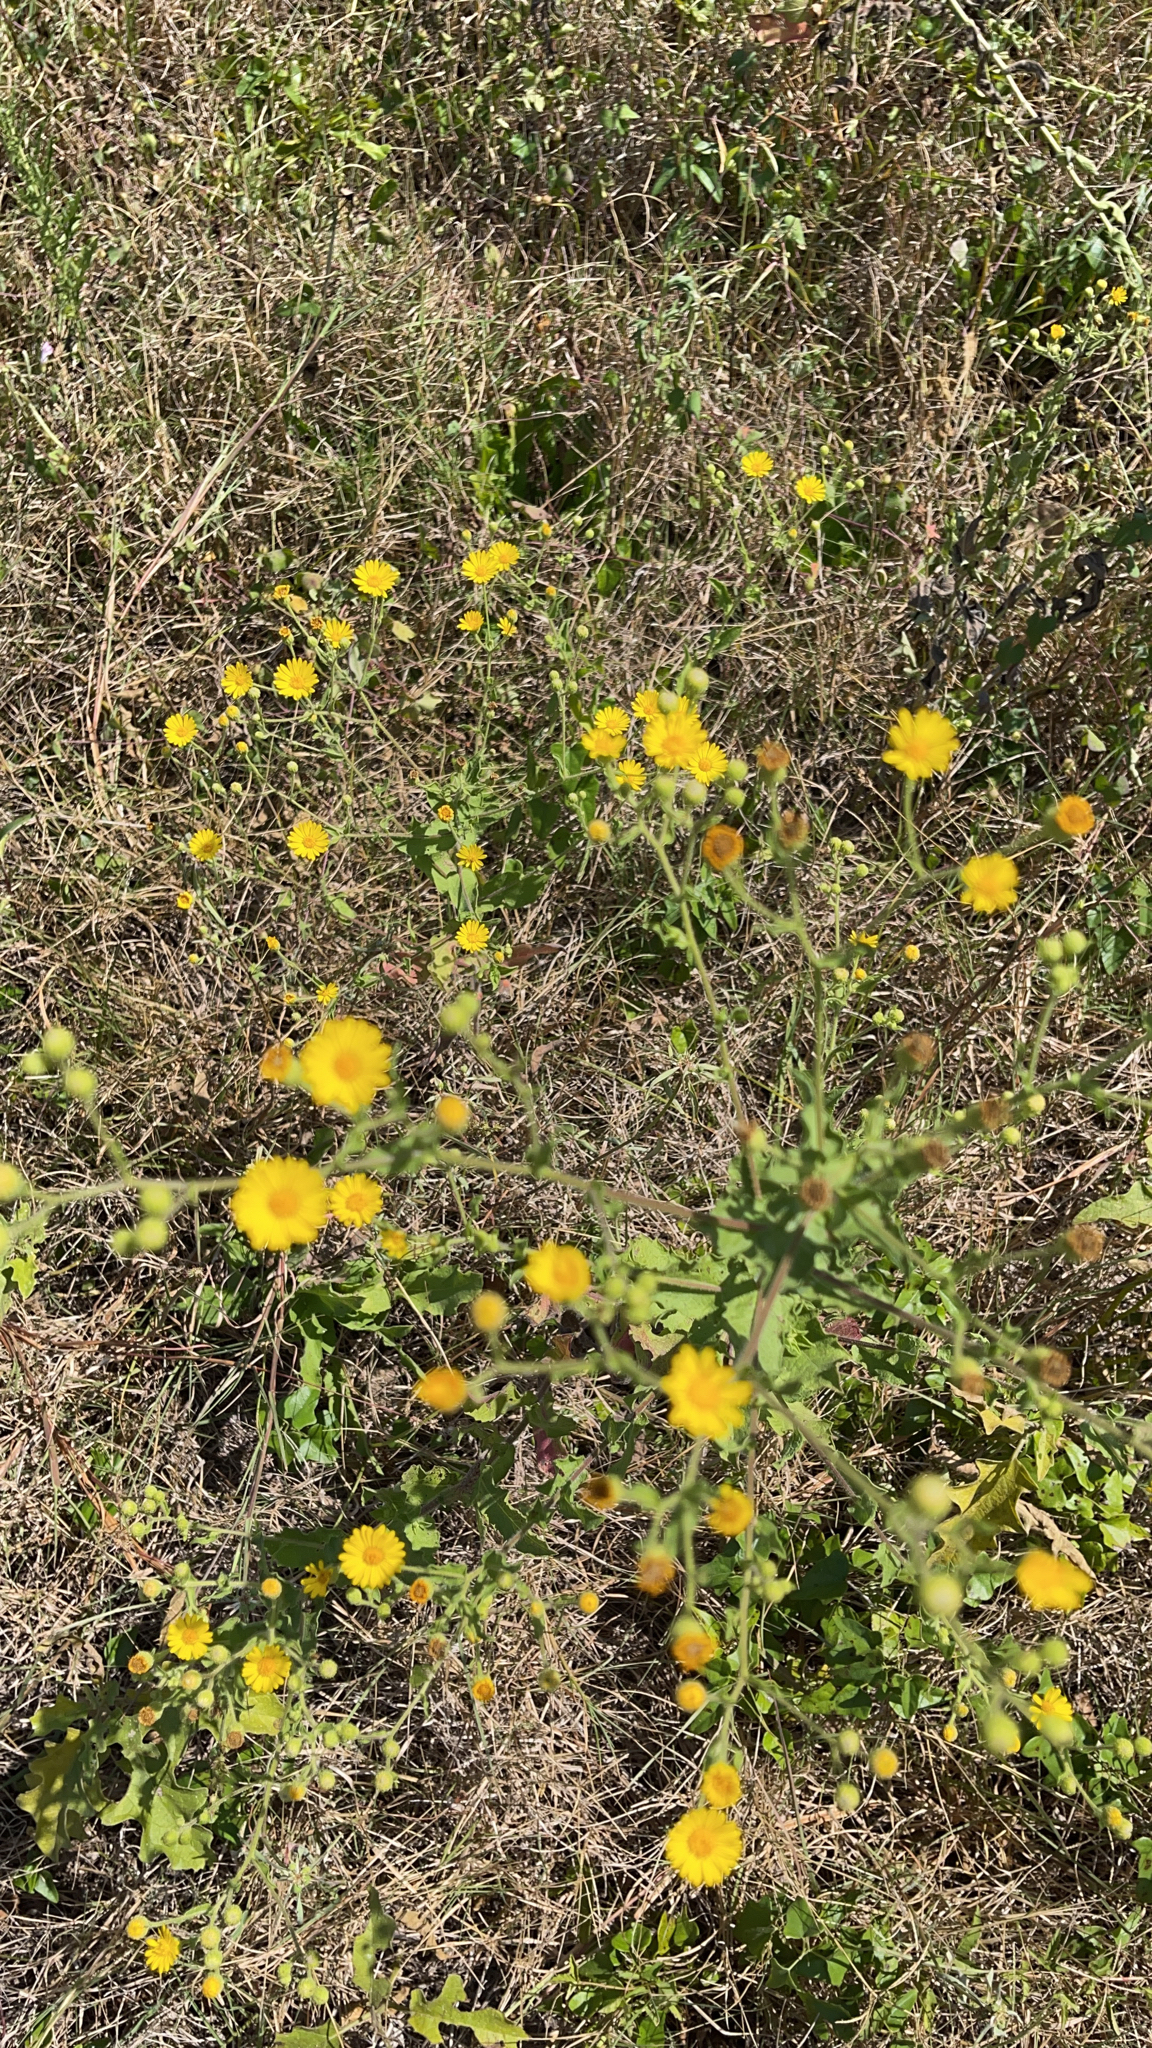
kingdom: Plantae
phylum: Tracheophyta
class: Magnoliopsida
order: Asterales
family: Asteraceae
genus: Heterotheca
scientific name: Heterotheca subaxillaris
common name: Camphorweed
